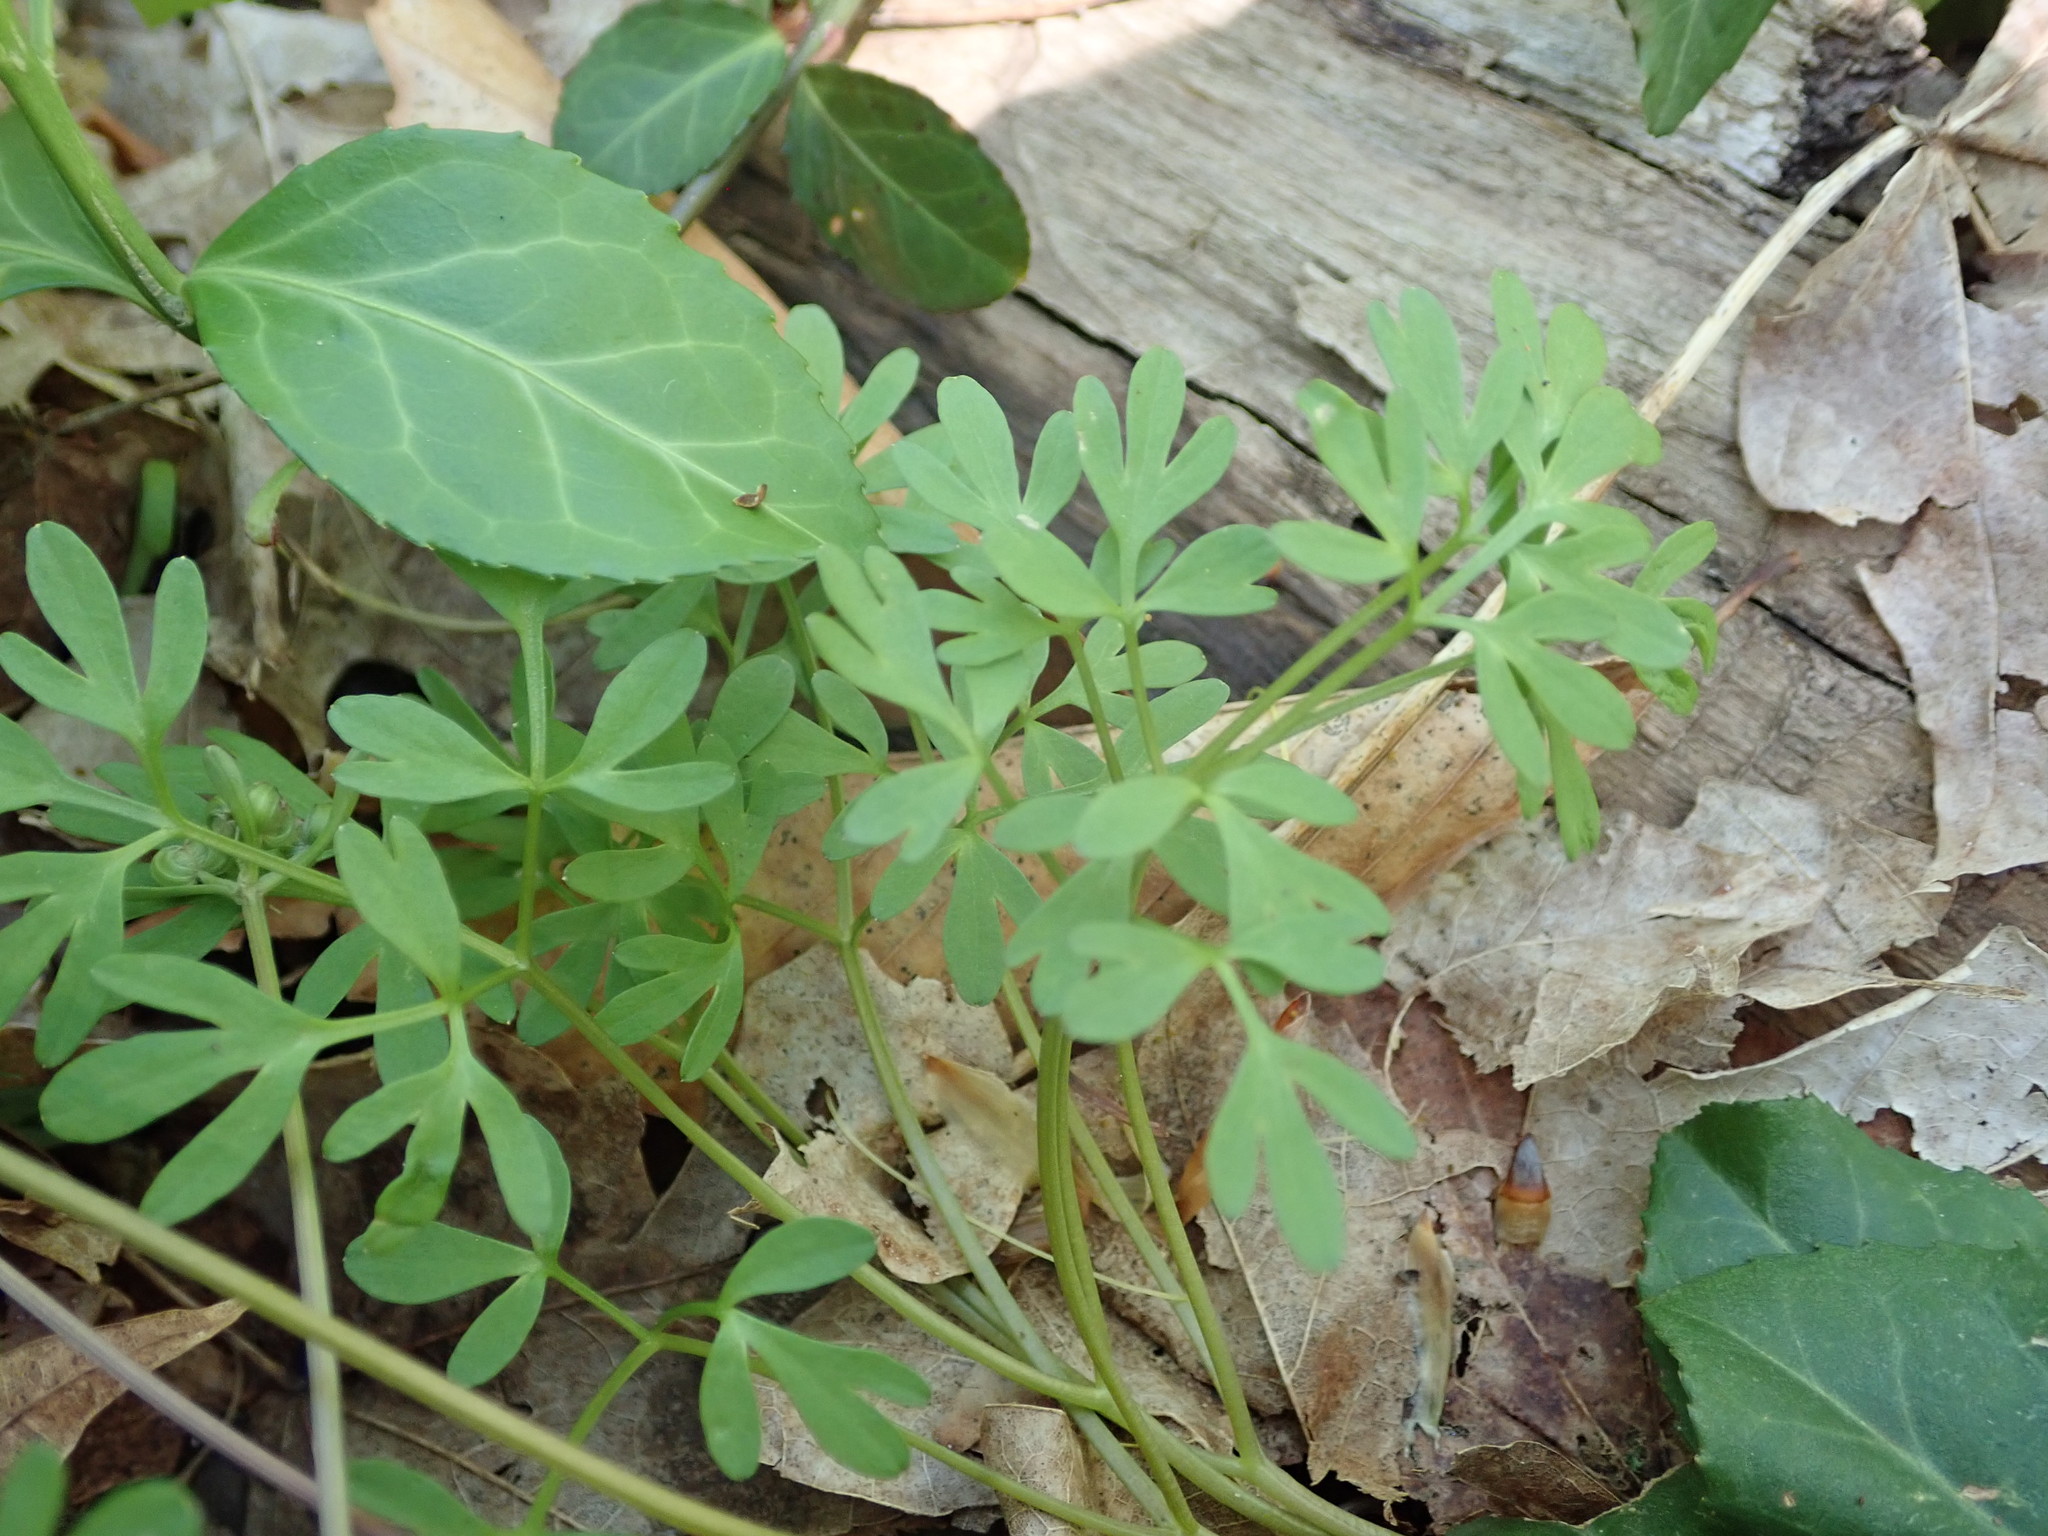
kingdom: Plantae
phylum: Tracheophyta
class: Magnoliopsida
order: Apiales
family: Apiaceae
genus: Erigenia
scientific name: Erigenia bulbosa
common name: Pepper-and-salt
